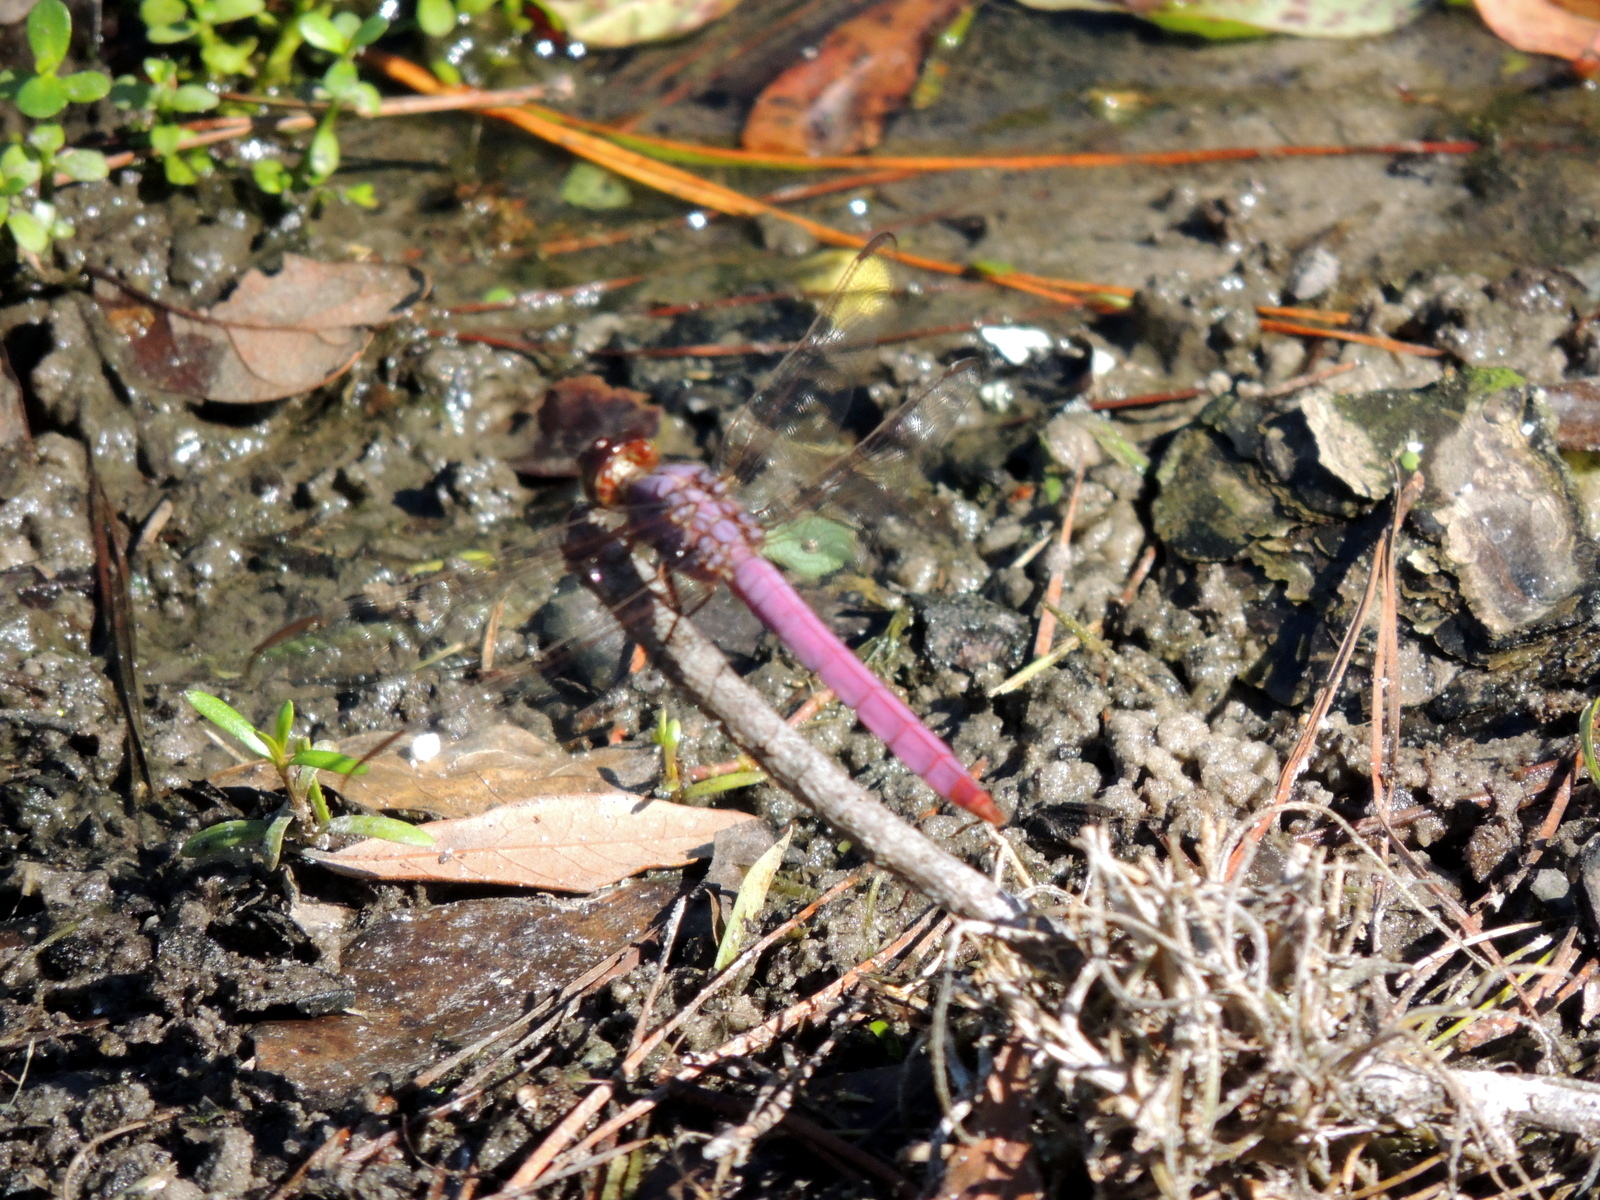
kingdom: Animalia
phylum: Arthropoda
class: Insecta
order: Odonata
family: Libellulidae
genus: Orthemis
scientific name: Orthemis ferruginea
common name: Roseate skimmer
